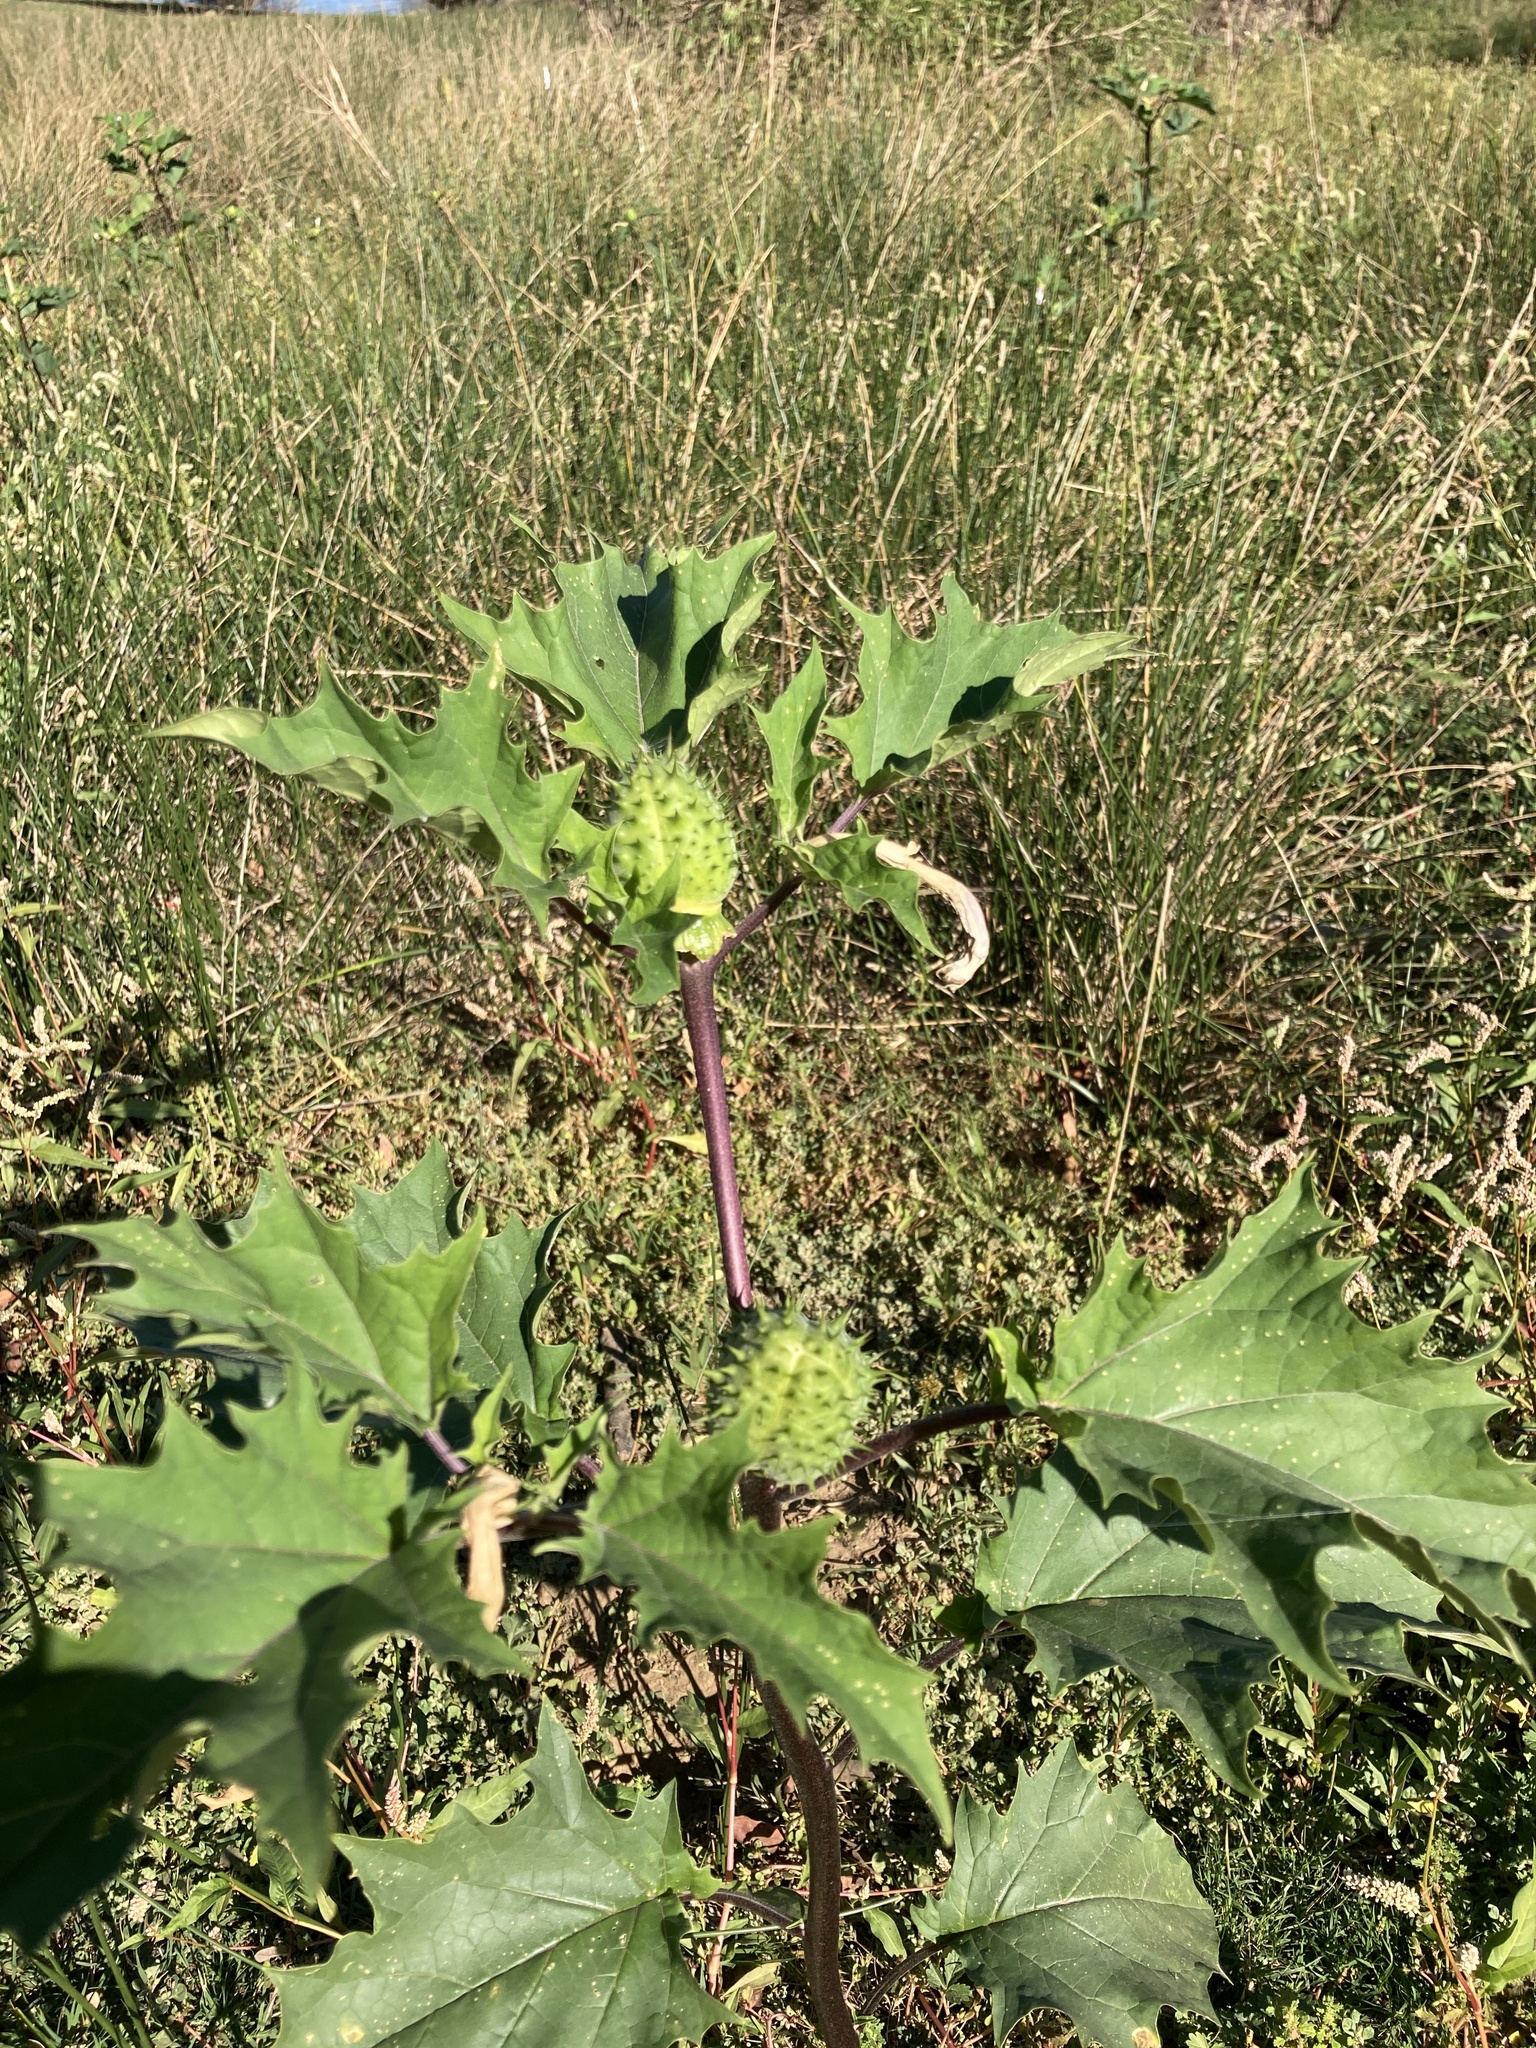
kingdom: Plantae
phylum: Tracheophyta
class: Magnoliopsida
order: Solanales
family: Solanaceae
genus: Datura
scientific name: Datura stramonium
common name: Thorn-apple
